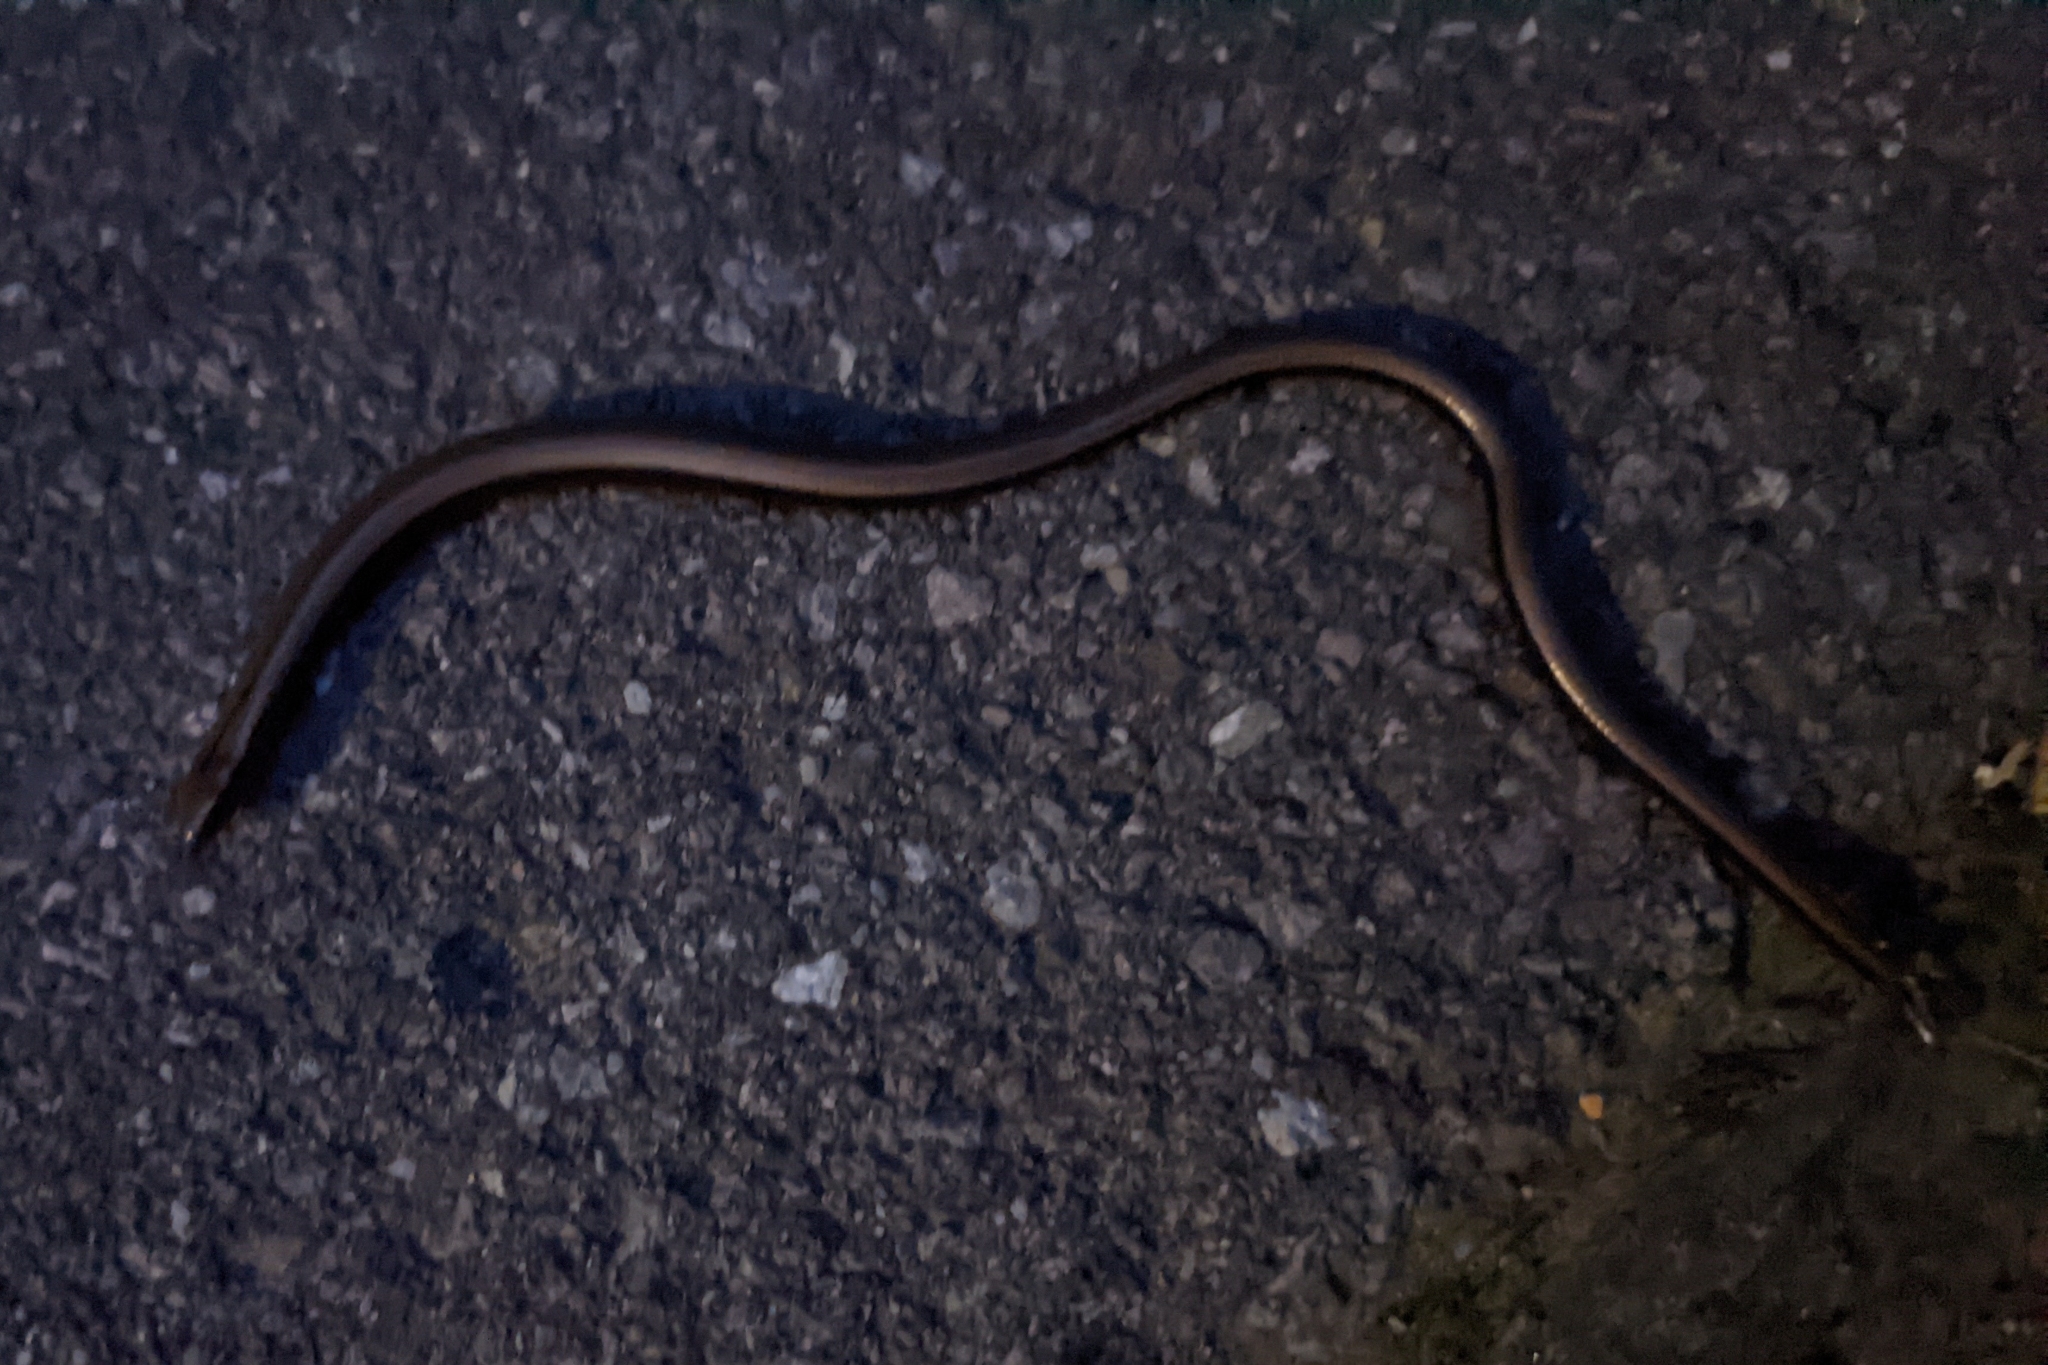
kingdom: Animalia
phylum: Chordata
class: Squamata
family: Anguidae
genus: Anguis
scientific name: Anguis fragilis
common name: Slow worm
